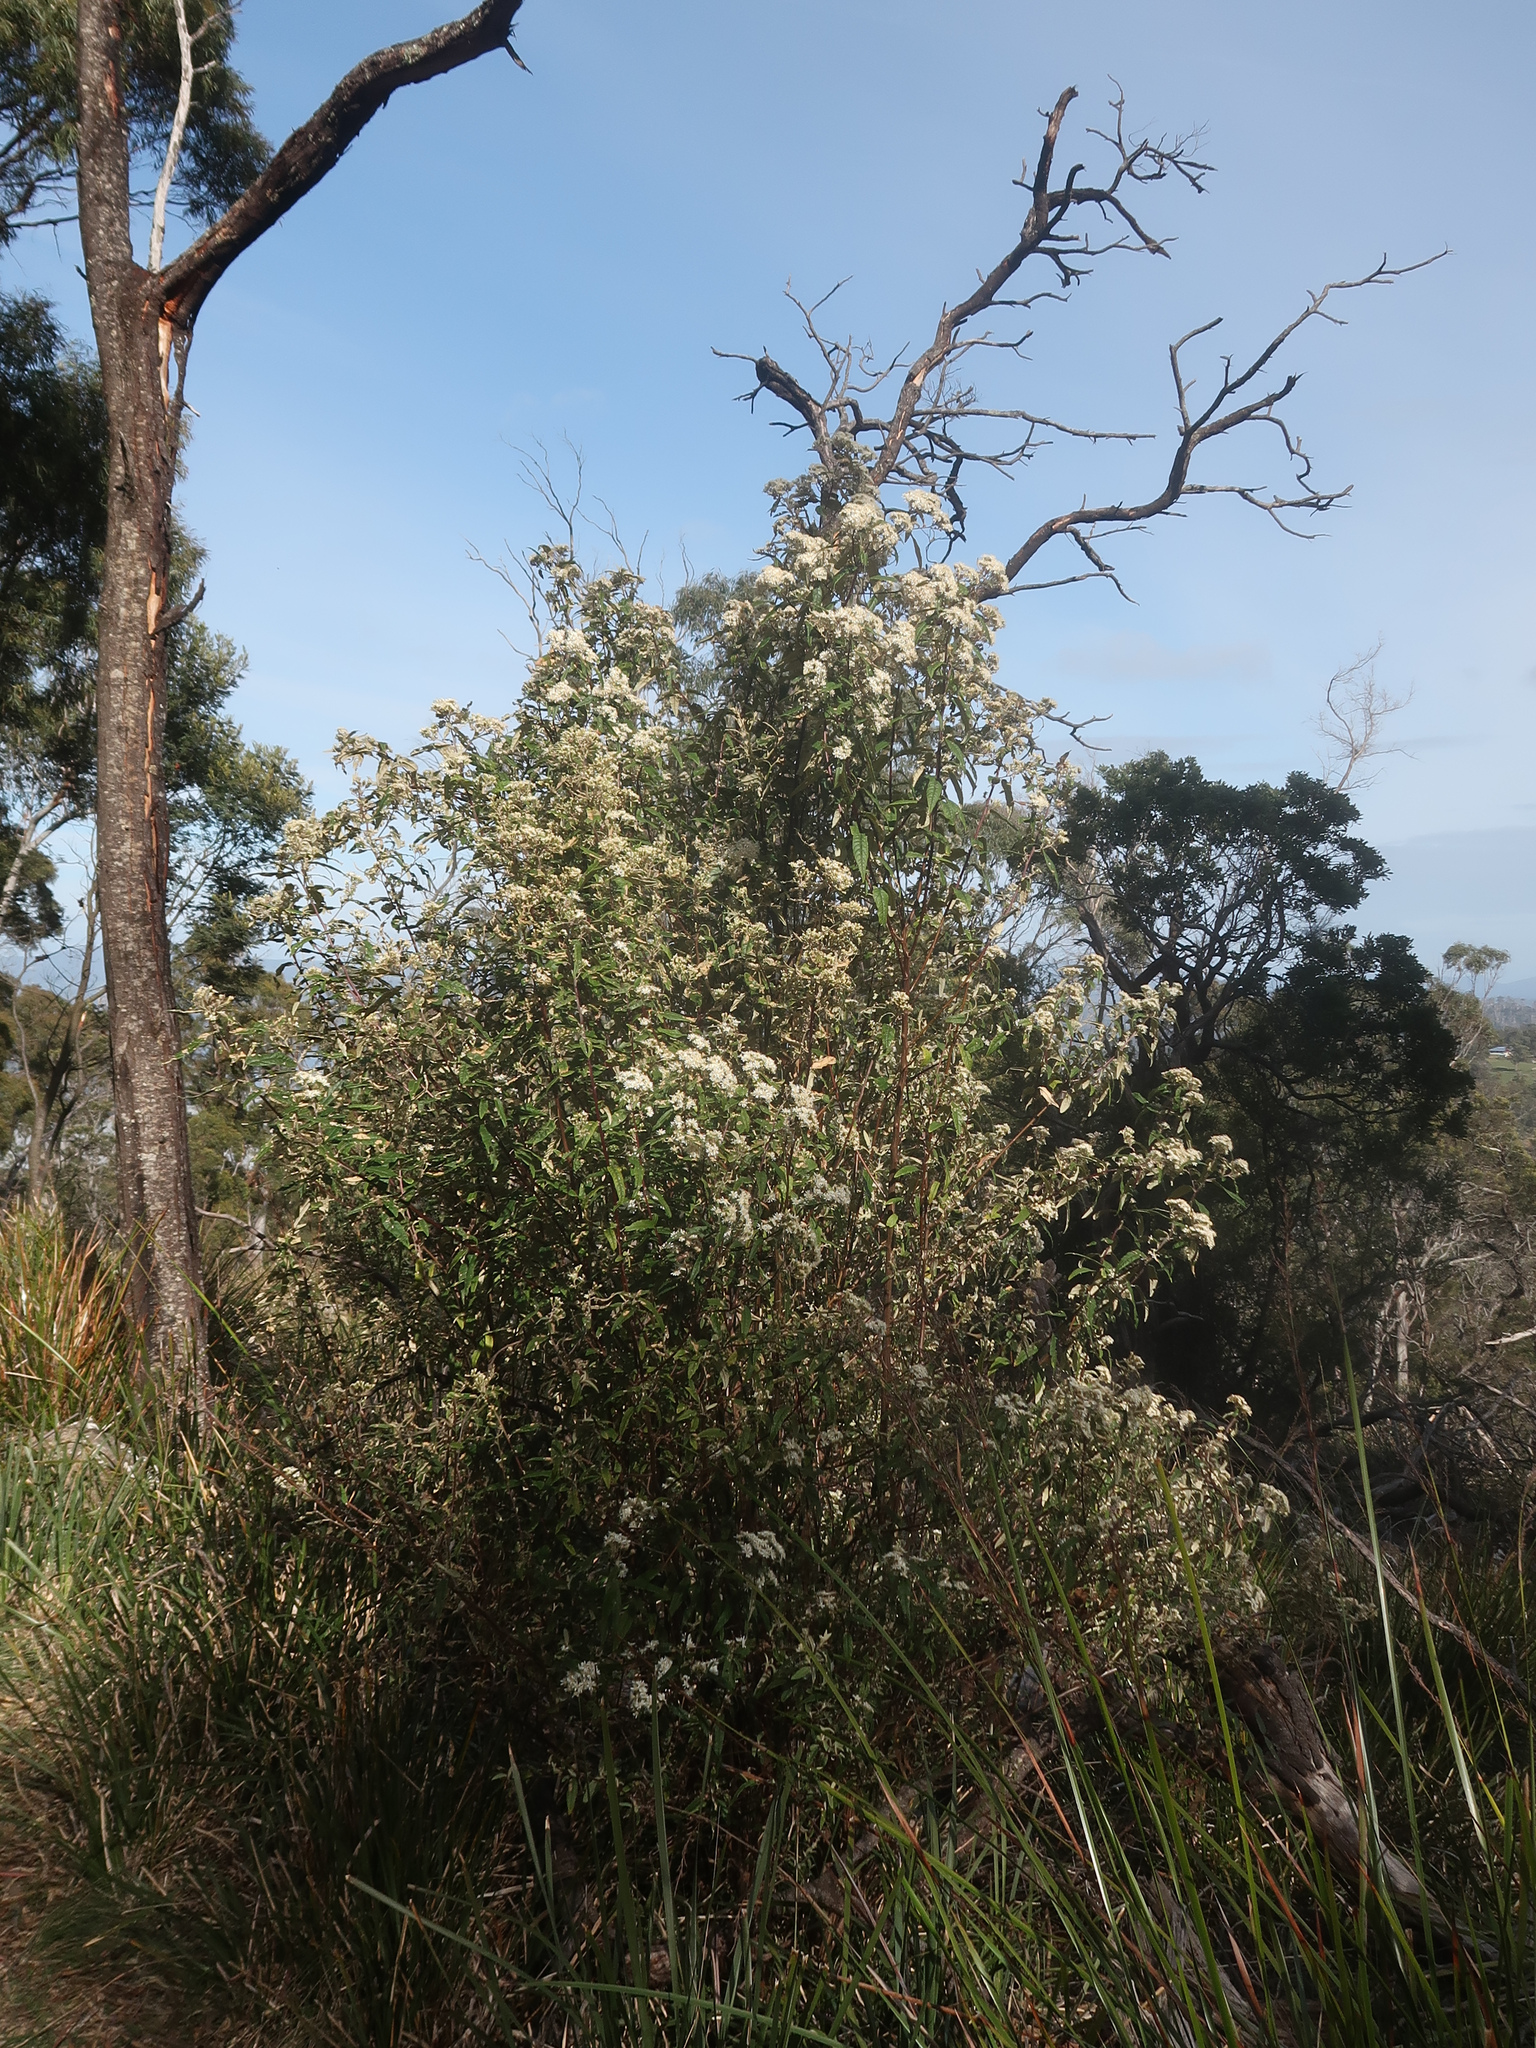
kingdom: Plantae
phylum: Tracheophyta
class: Magnoliopsida
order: Asterales
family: Asteraceae
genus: Olearia
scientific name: Olearia lirata
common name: Dusty daisybush
